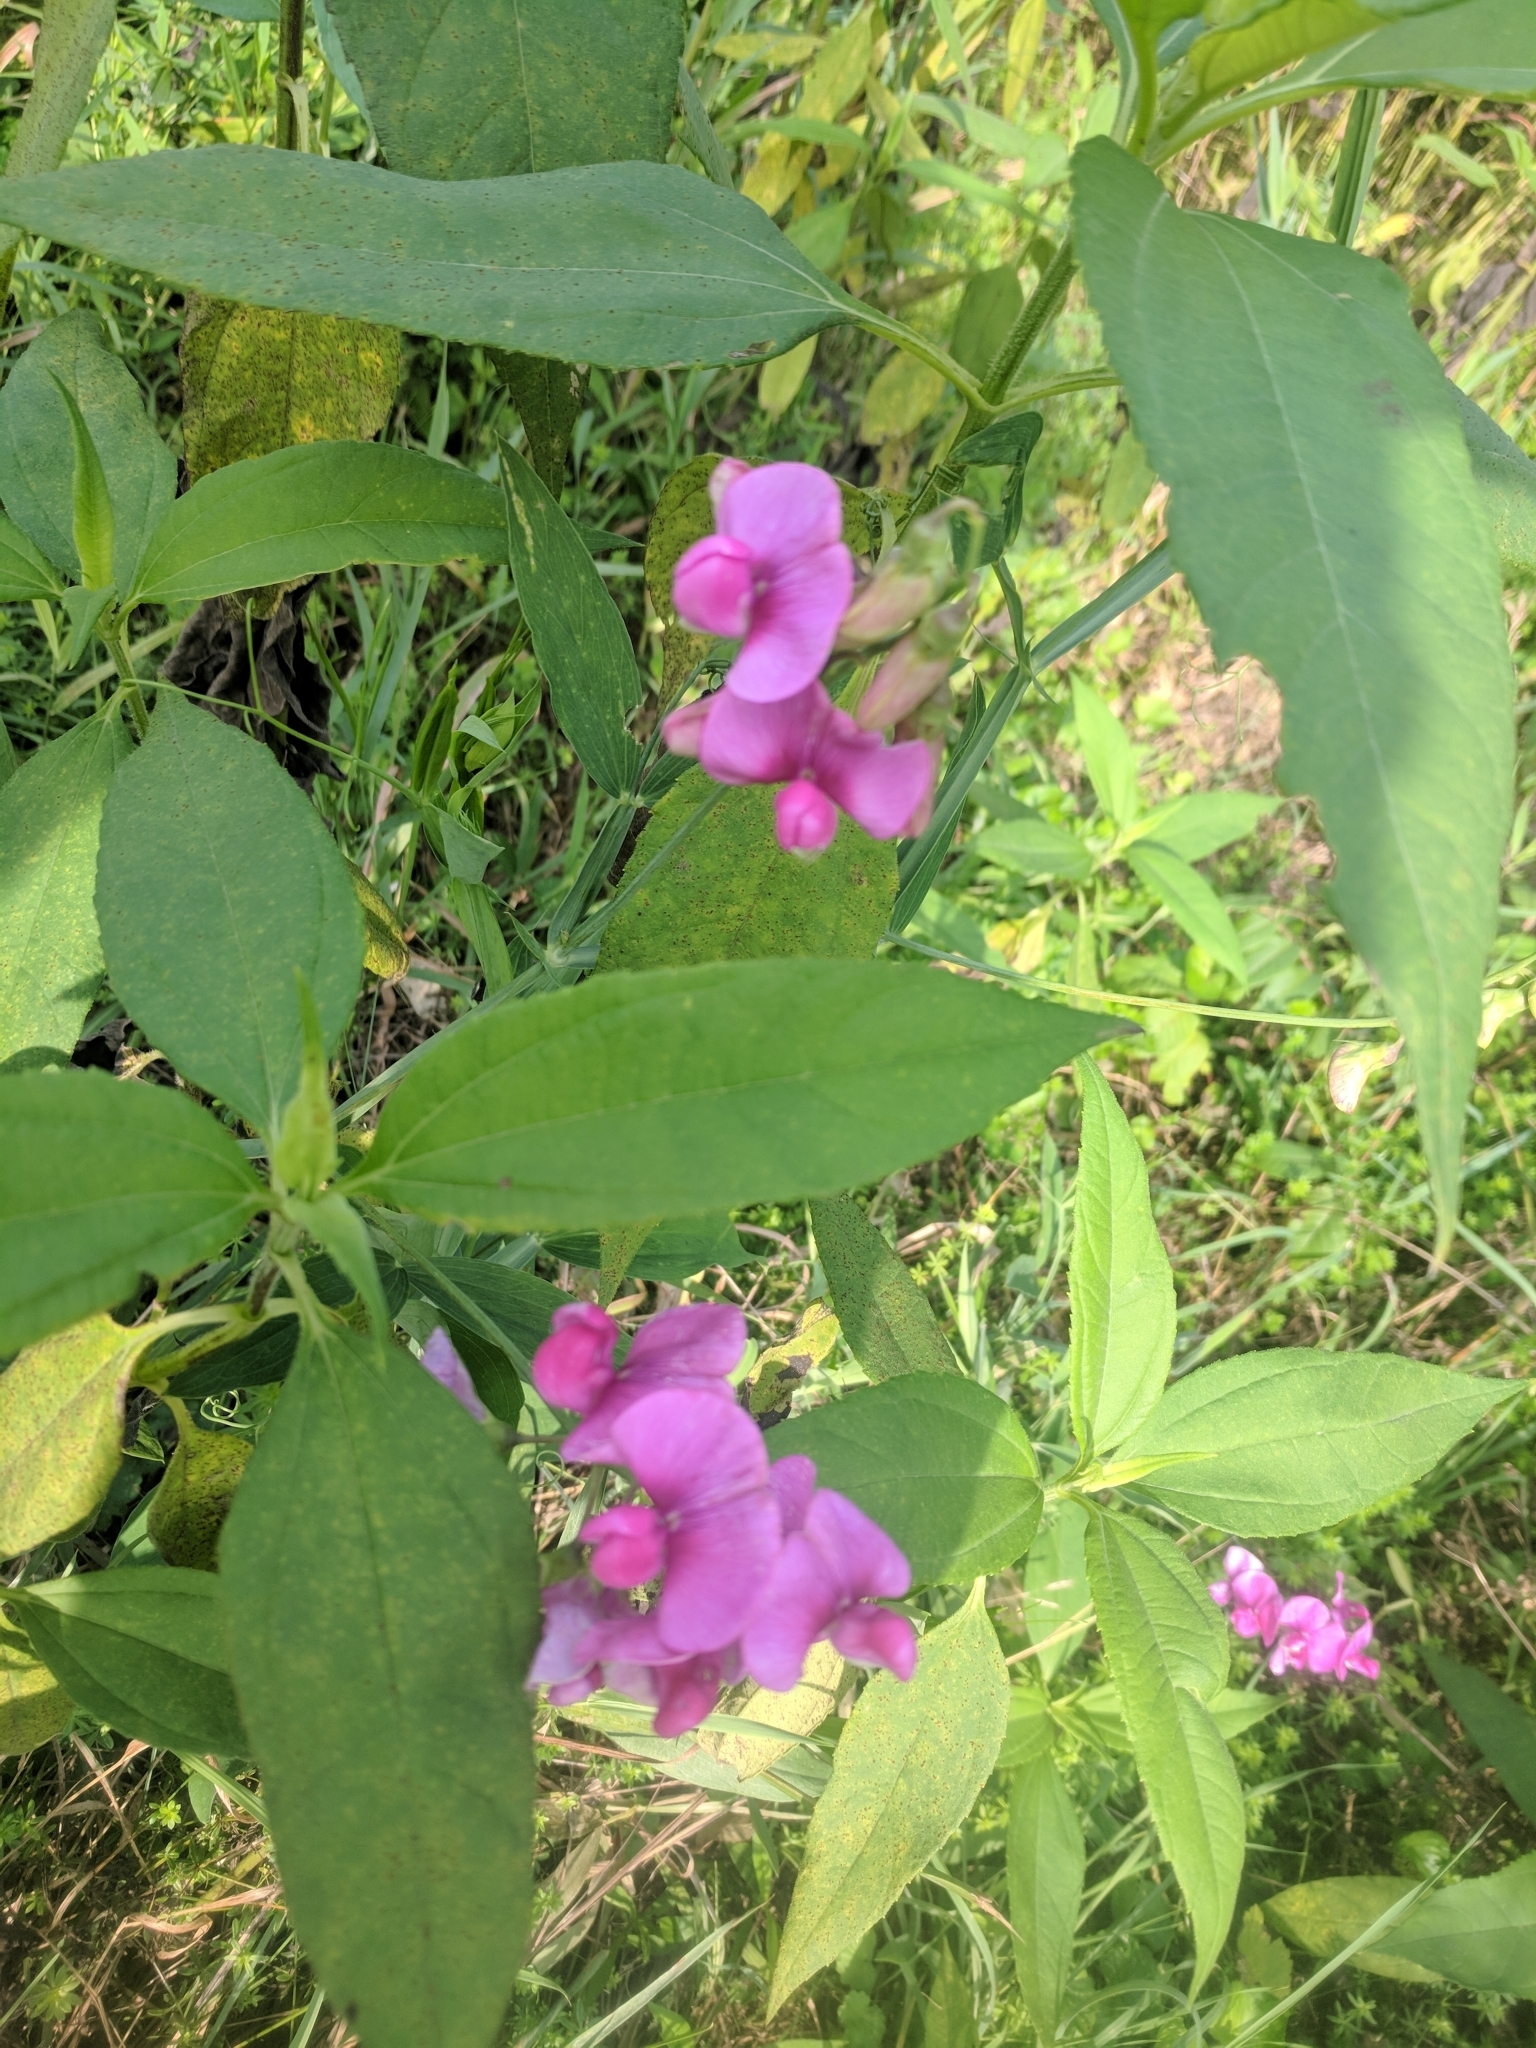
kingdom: Plantae
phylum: Tracheophyta
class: Magnoliopsida
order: Fabales
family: Fabaceae
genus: Lathyrus
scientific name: Lathyrus latifolius
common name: Perennial pea
